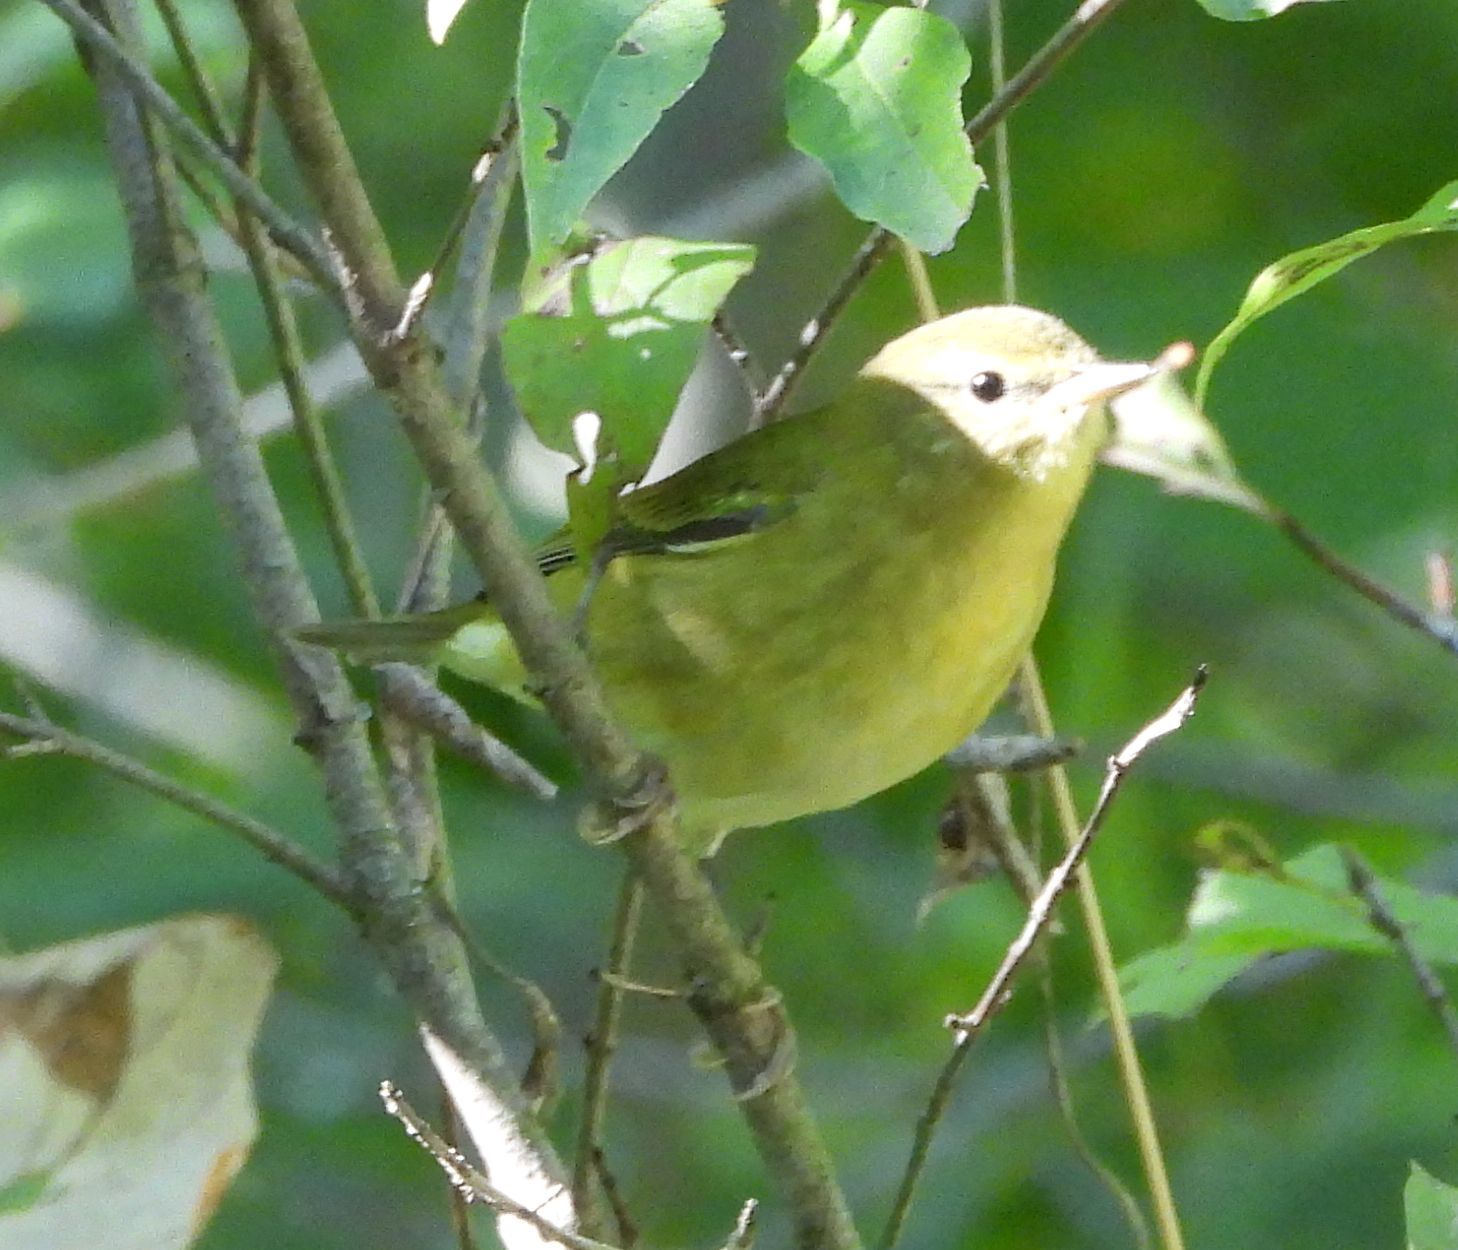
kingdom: Animalia
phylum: Chordata
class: Aves
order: Passeriformes
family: Parulidae
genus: Leiothlypis
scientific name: Leiothlypis peregrina
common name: Tennessee warbler
